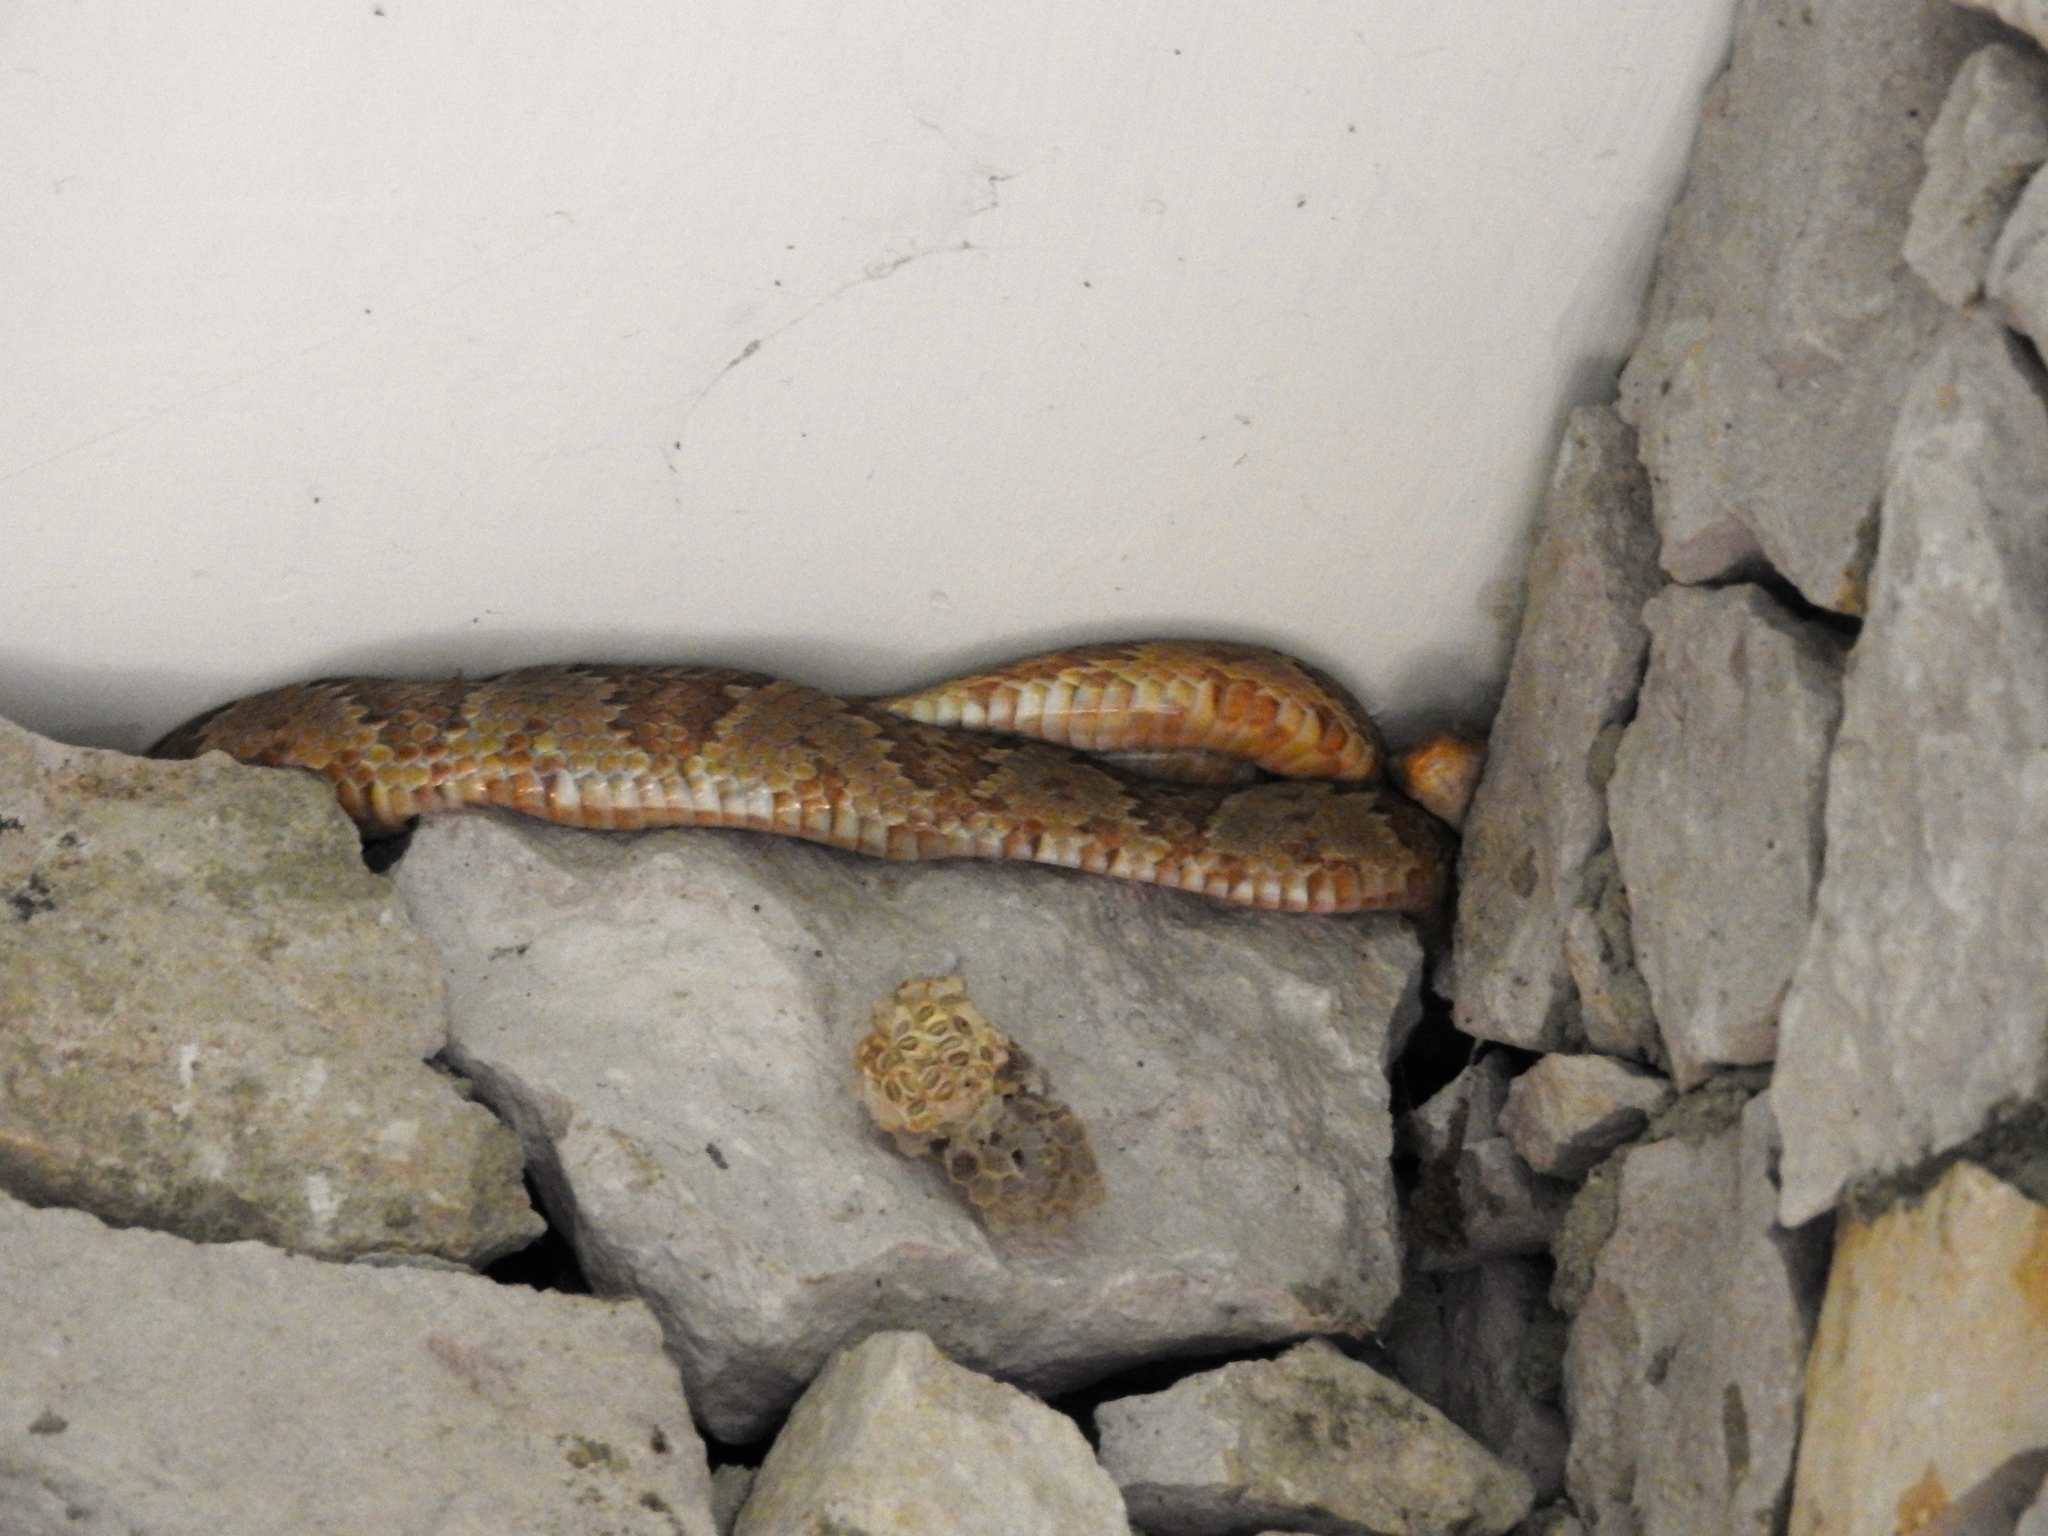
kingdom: Animalia
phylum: Chordata
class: Squamata
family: Colubridae
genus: Trimorphodon
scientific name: Trimorphodon paucimaculatus
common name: Sinaloan lyresnake
